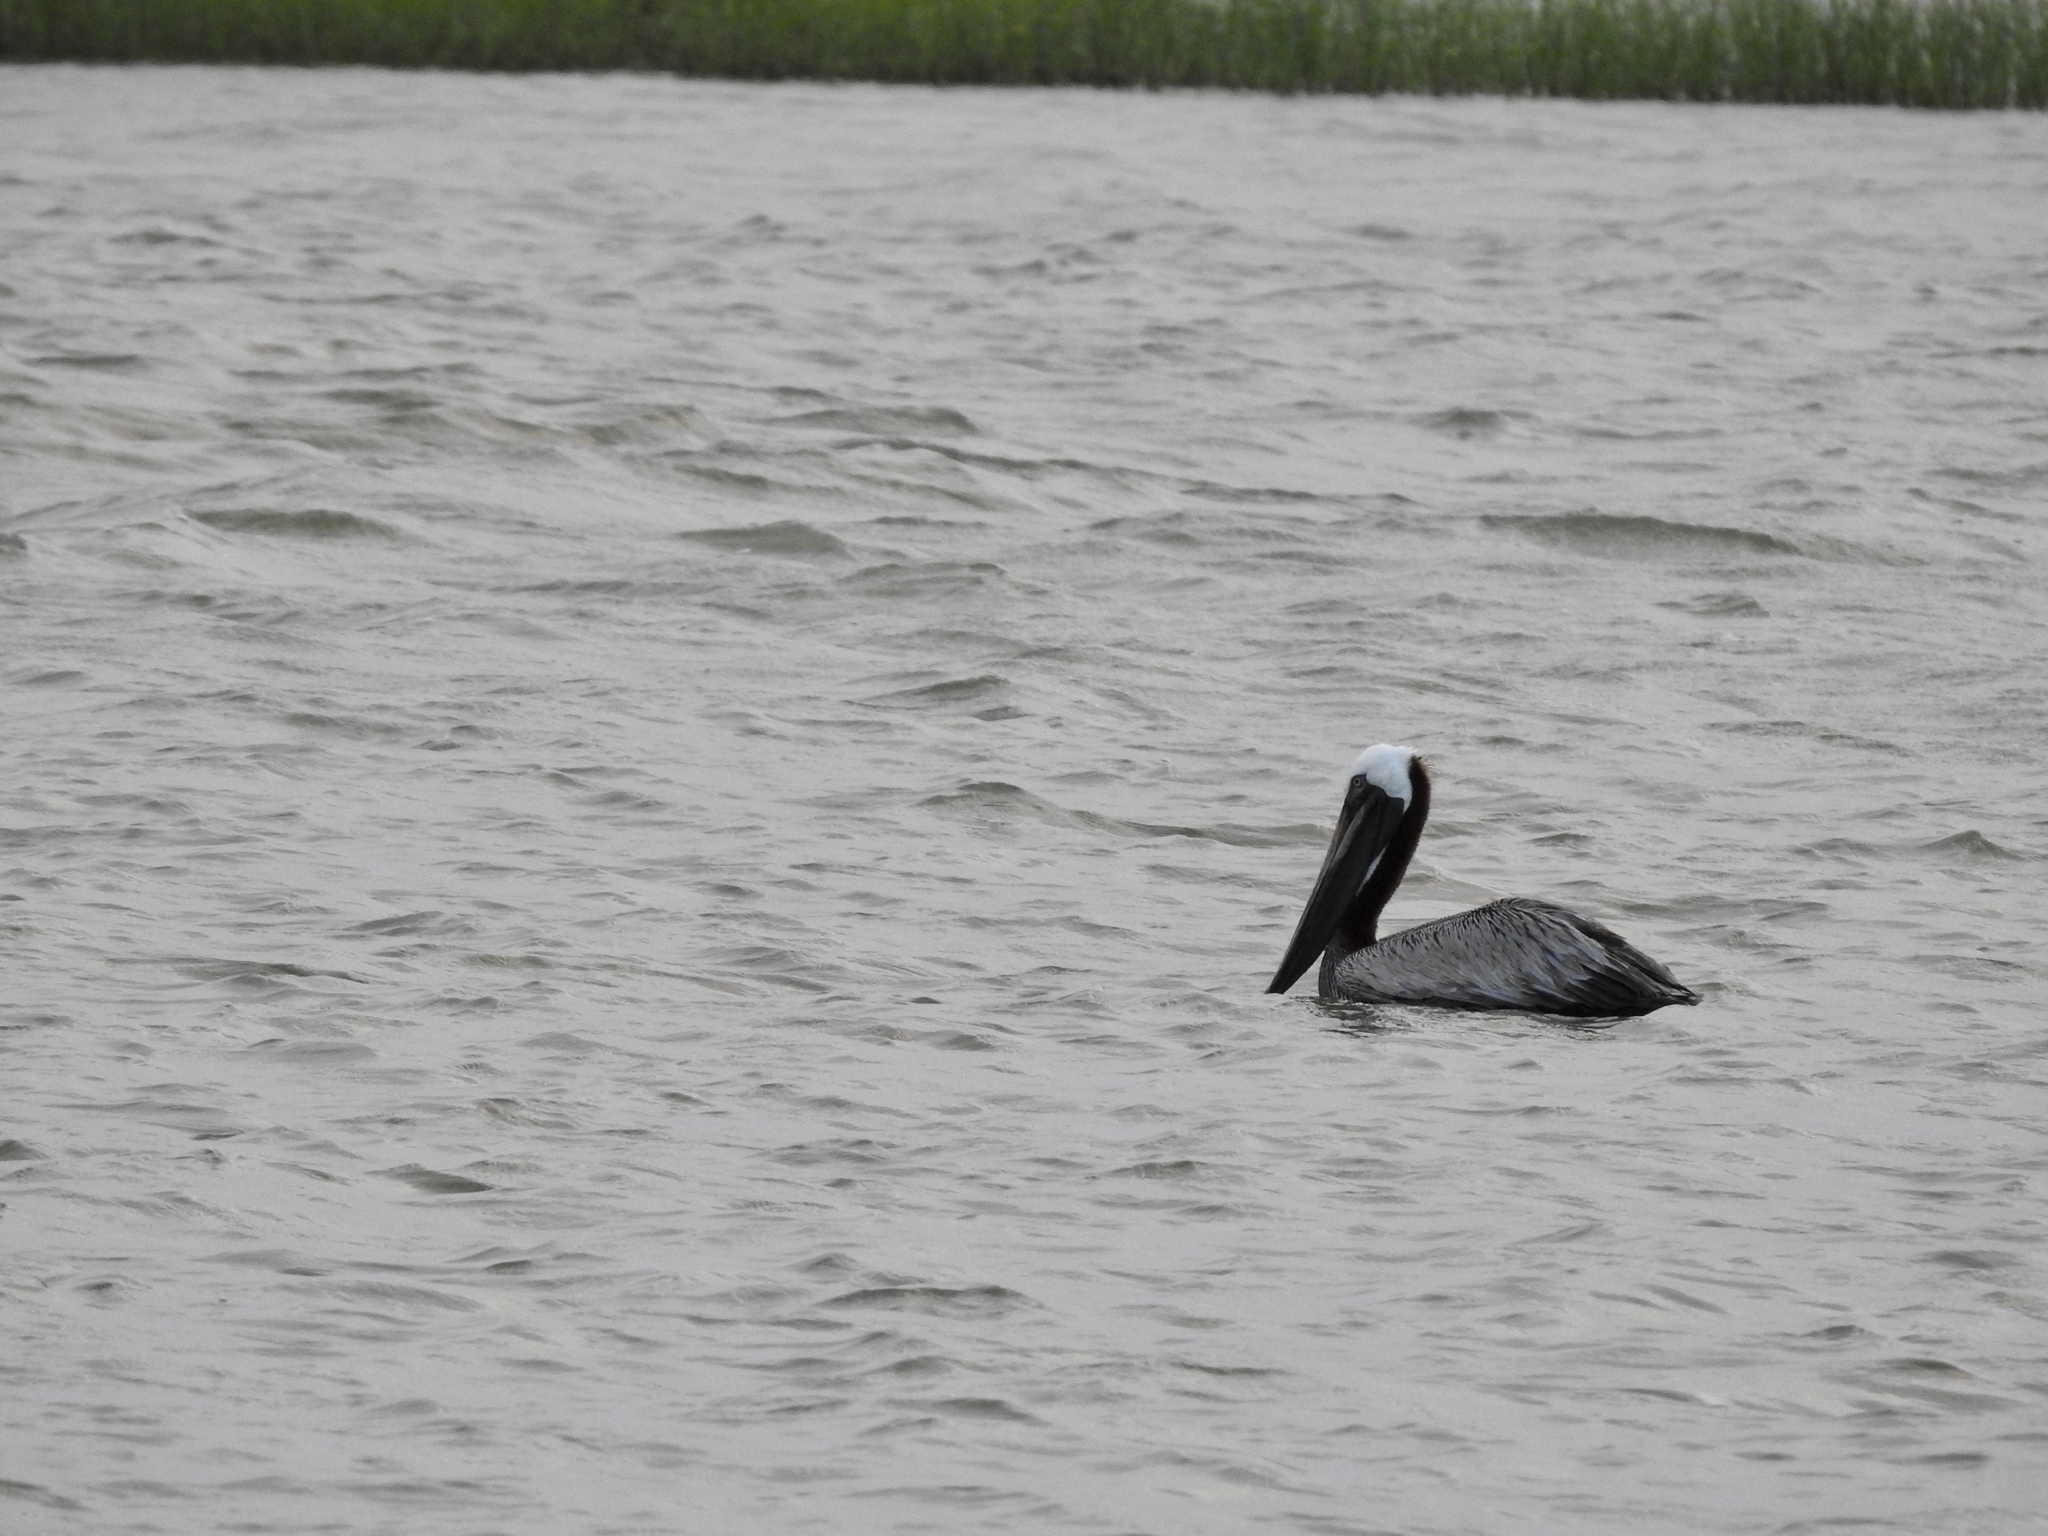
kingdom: Animalia
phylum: Chordata
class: Aves
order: Pelecaniformes
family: Pelecanidae
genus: Pelecanus
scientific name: Pelecanus occidentalis
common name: Brown pelican
